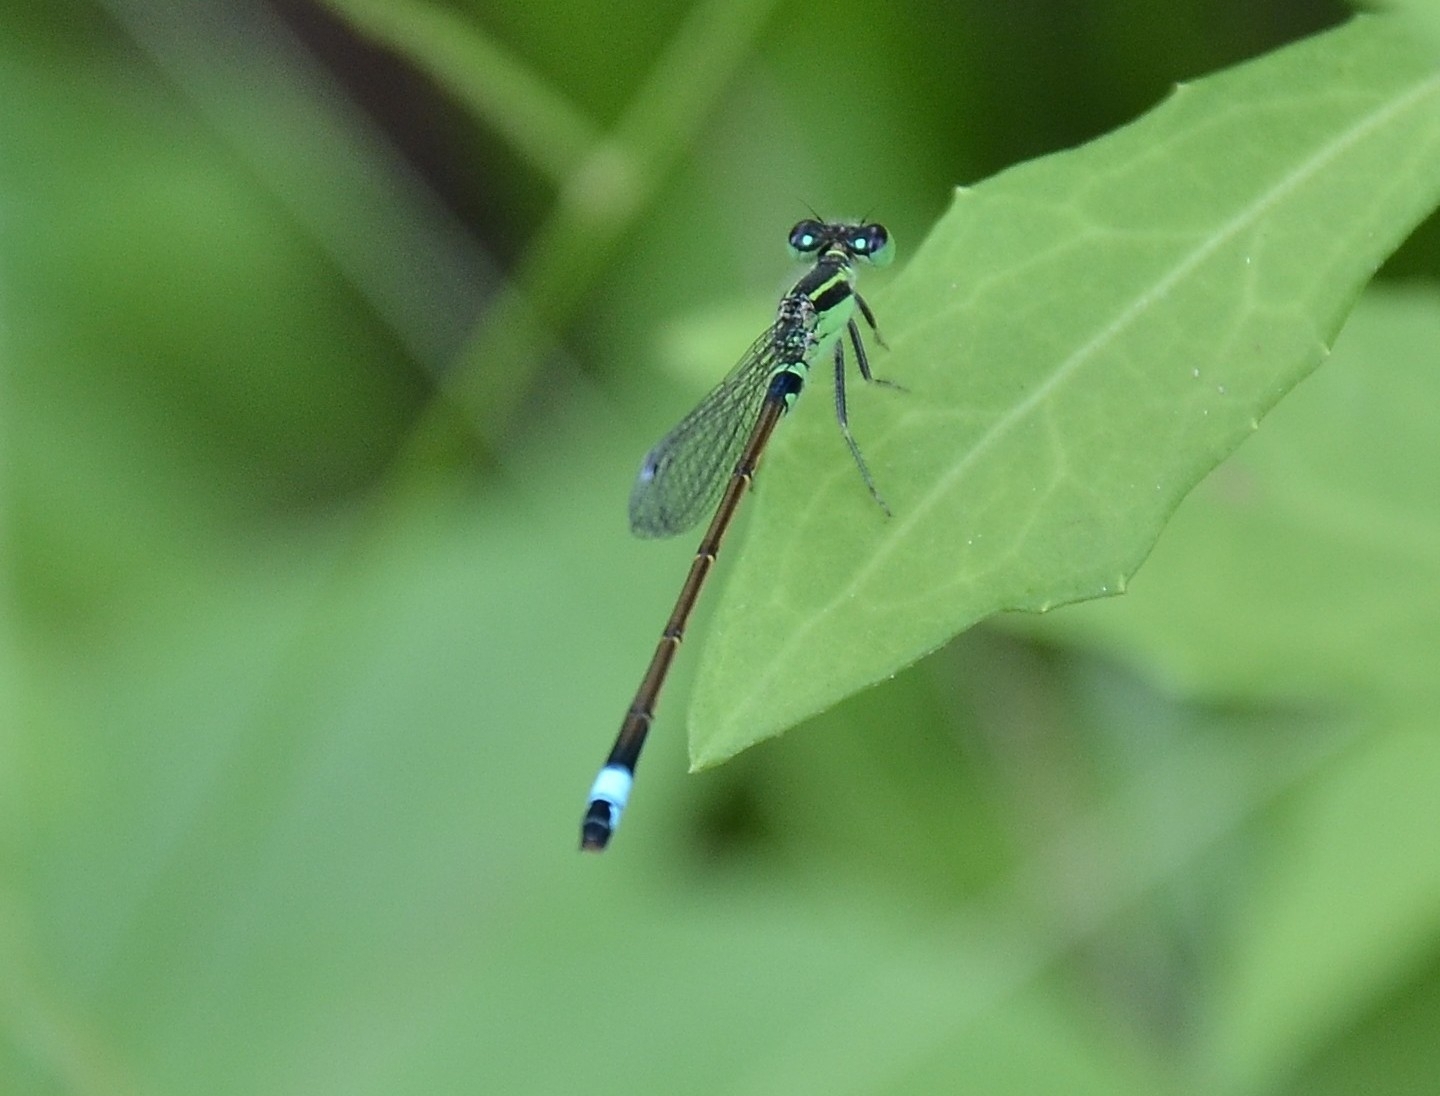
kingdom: Animalia
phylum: Arthropoda
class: Insecta
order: Odonata
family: Coenagrionidae
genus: Ischnura
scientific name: Ischnura senegalensis
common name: Tropical bluetail
